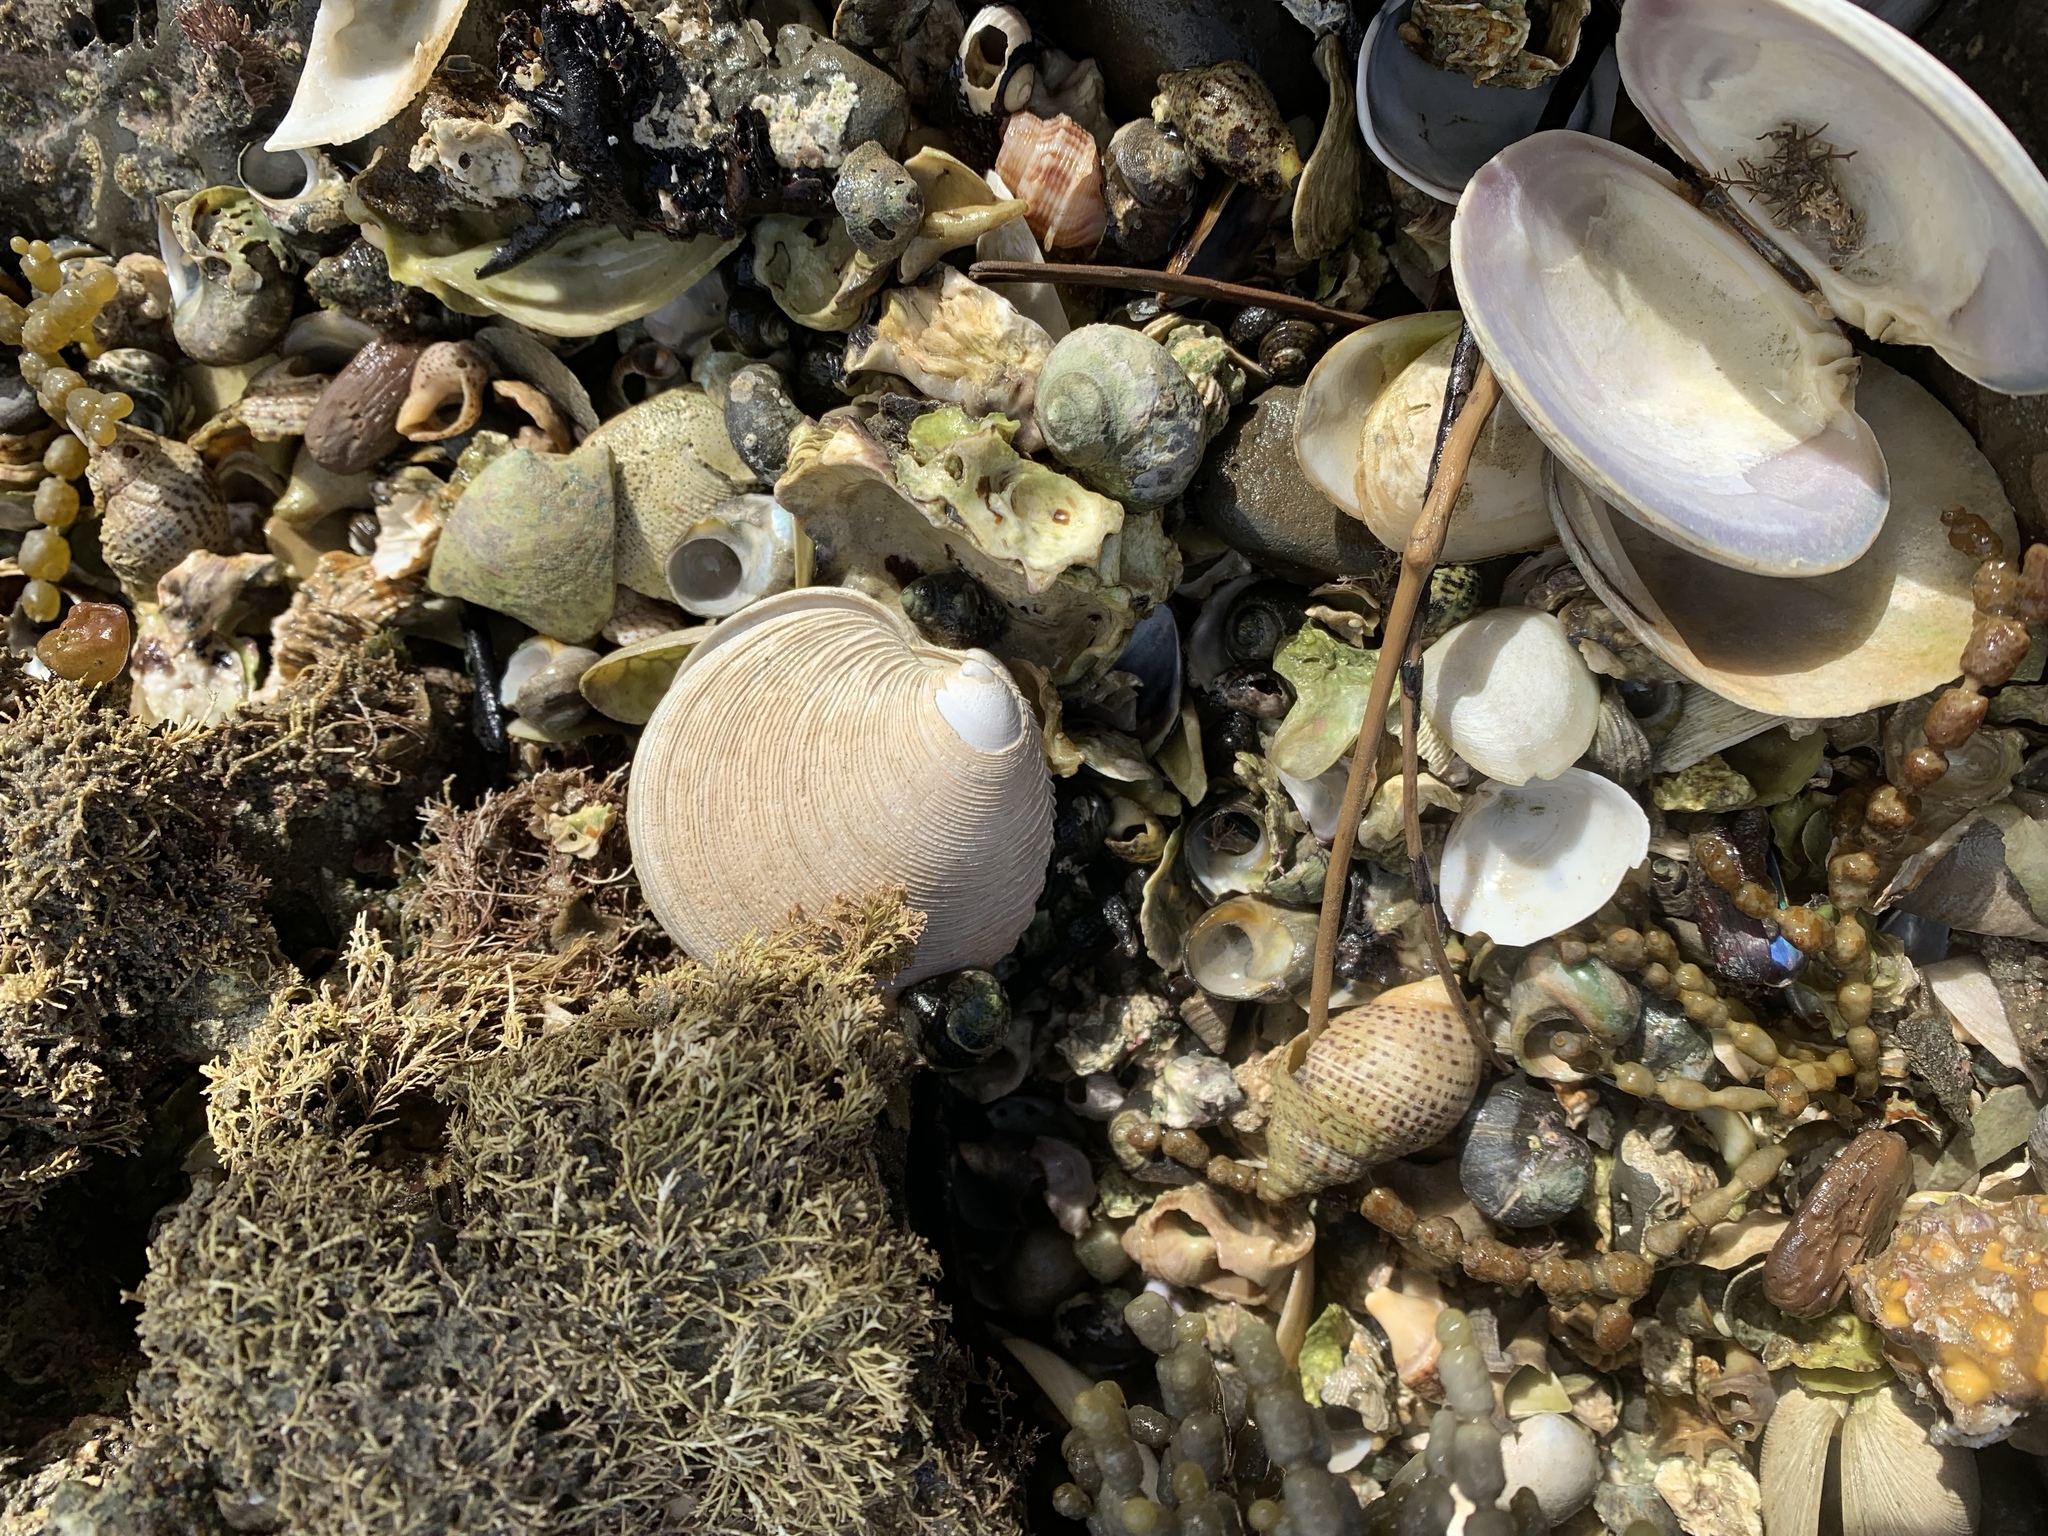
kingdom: Animalia
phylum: Mollusca
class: Bivalvia
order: Venerida
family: Veneridae
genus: Dosinia
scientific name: Dosinia anus
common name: Old-woman dosinia
